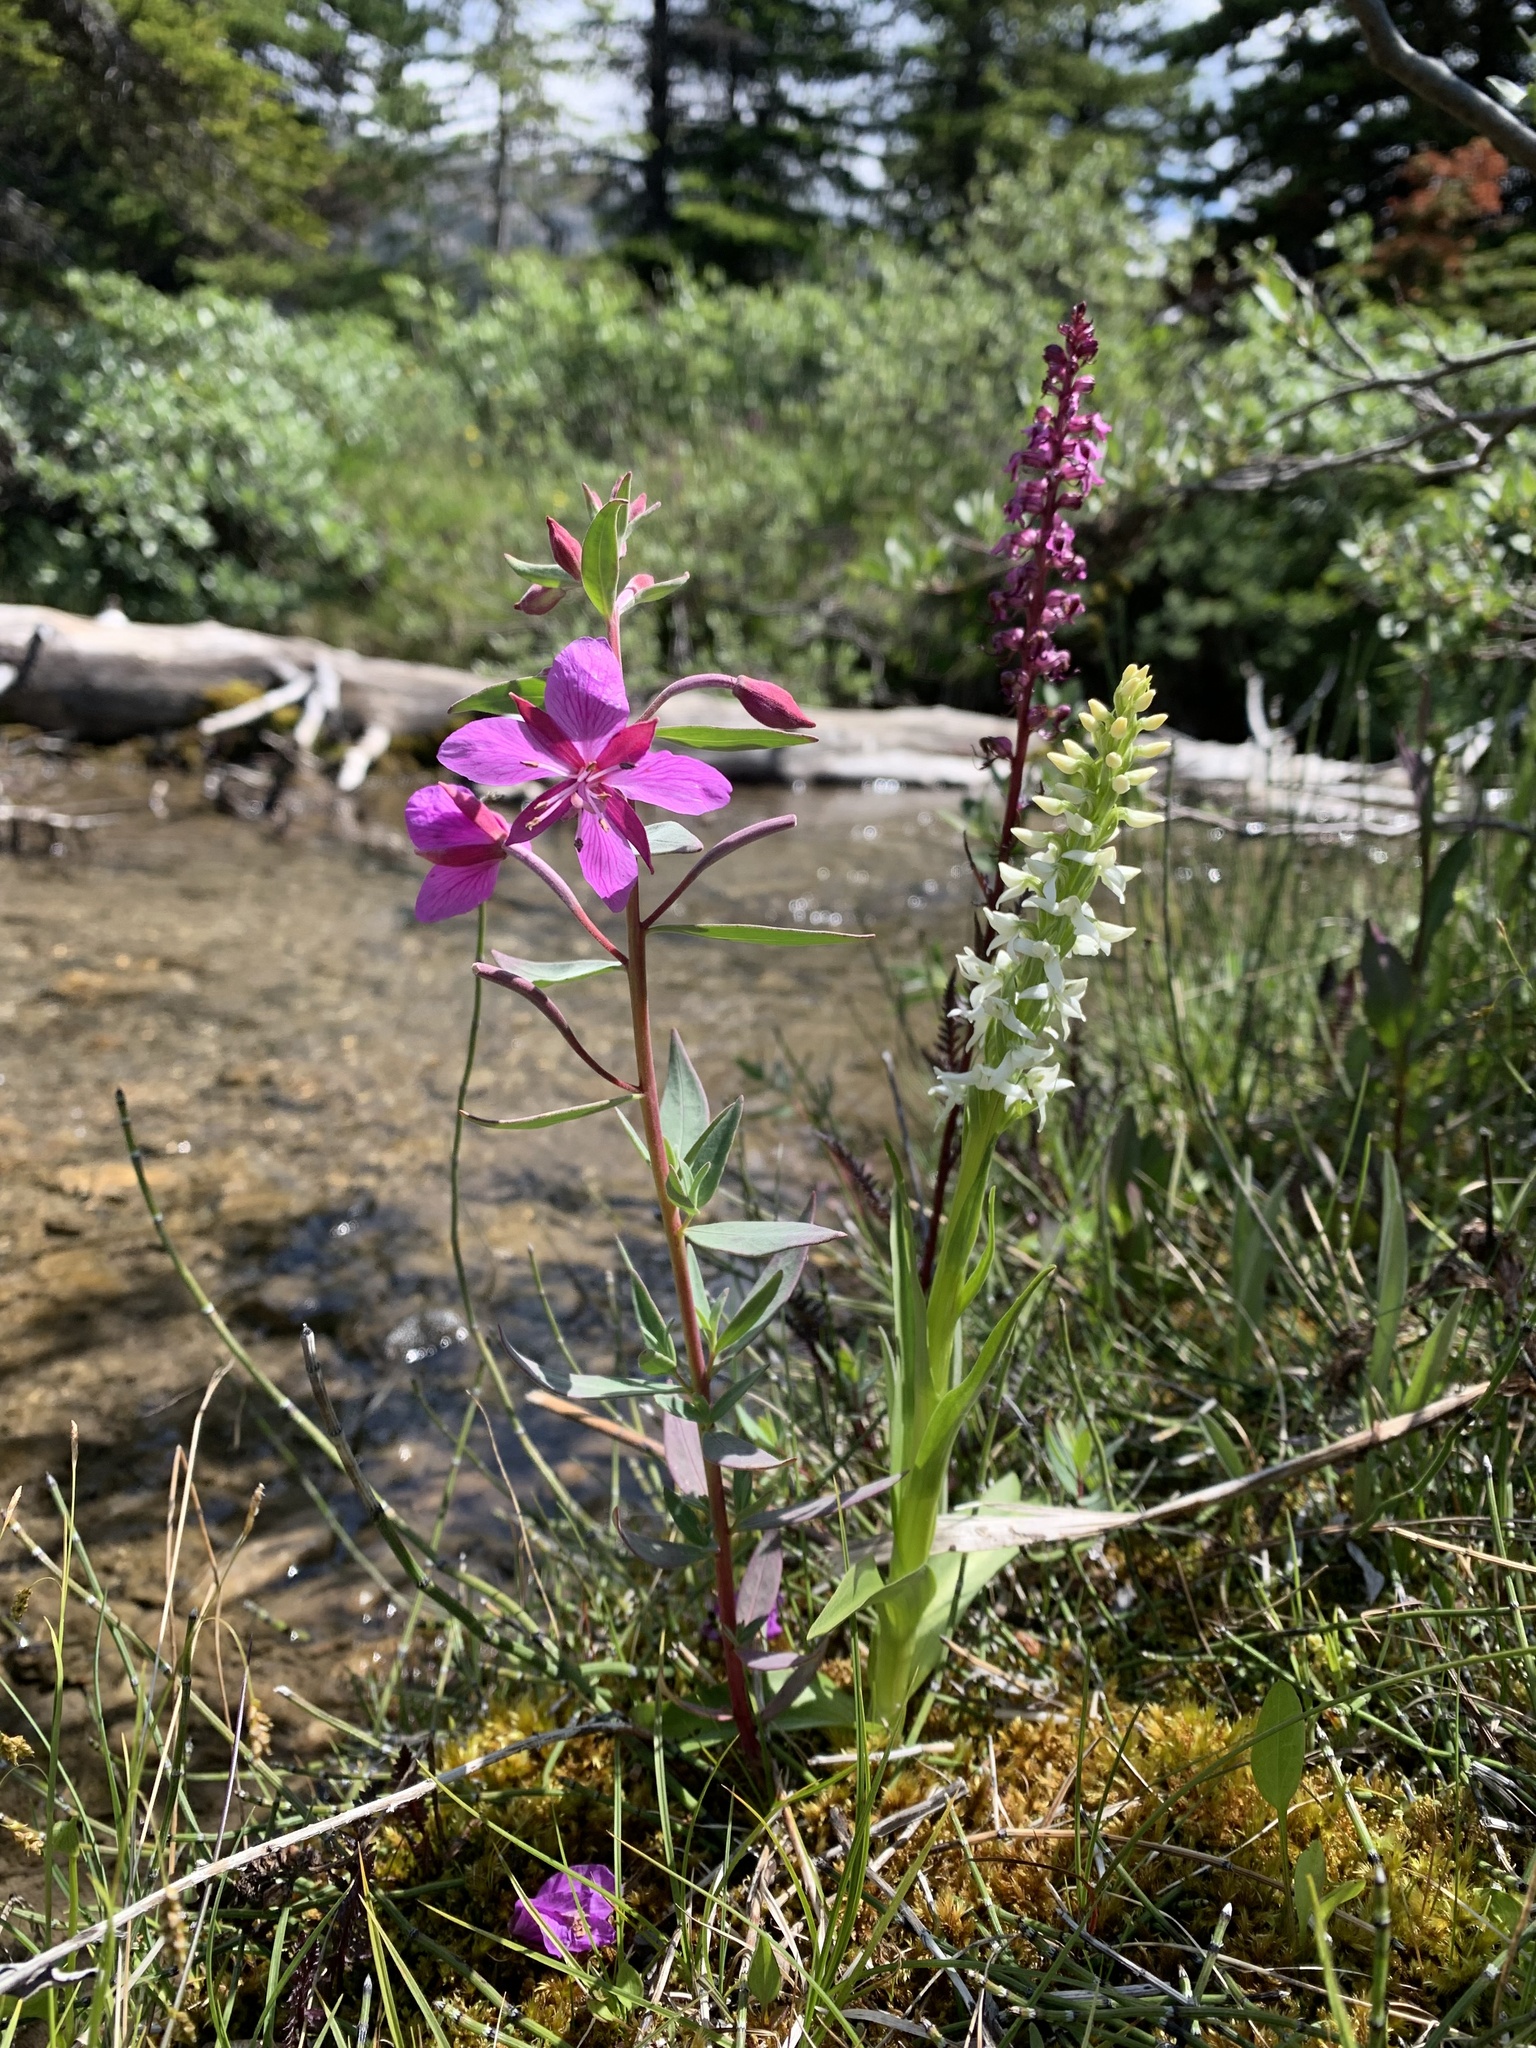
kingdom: Plantae
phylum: Tracheophyta
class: Liliopsida
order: Asparagales
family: Orchidaceae
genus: Platanthera
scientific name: Platanthera dilatata
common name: Bog candles
